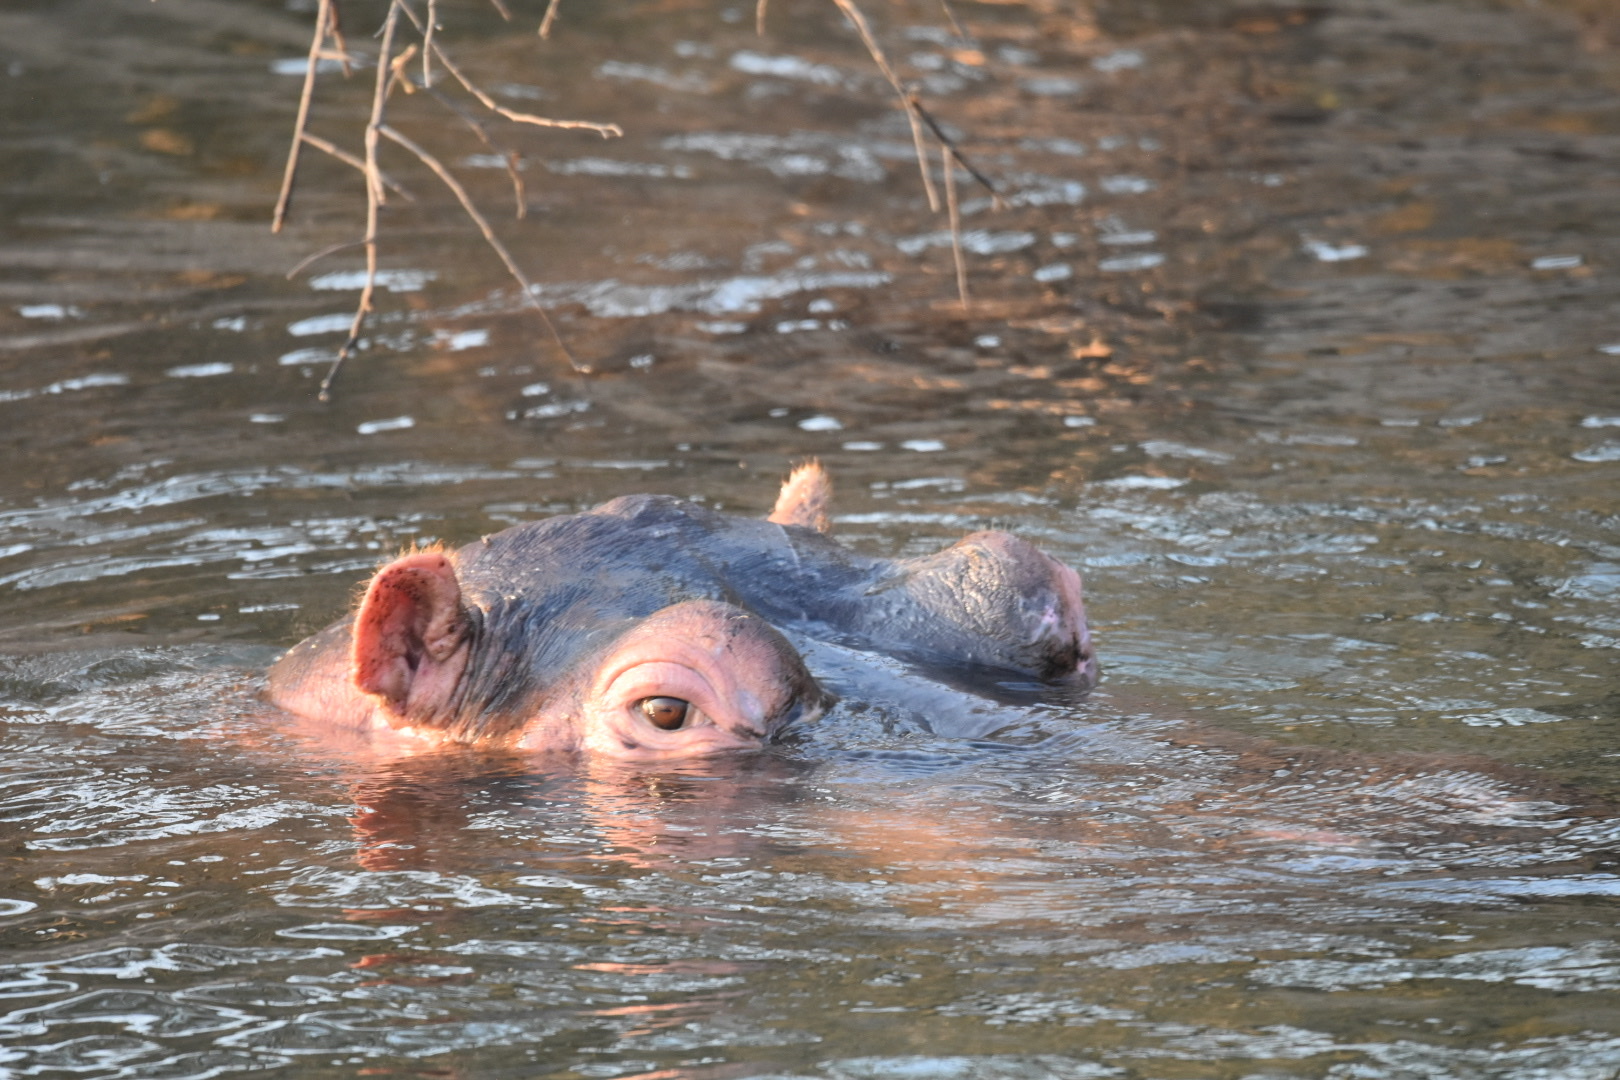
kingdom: Animalia
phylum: Chordata
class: Mammalia
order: Artiodactyla
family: Hippopotamidae
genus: Hippopotamus
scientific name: Hippopotamus amphibius
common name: Common hippopotamus
